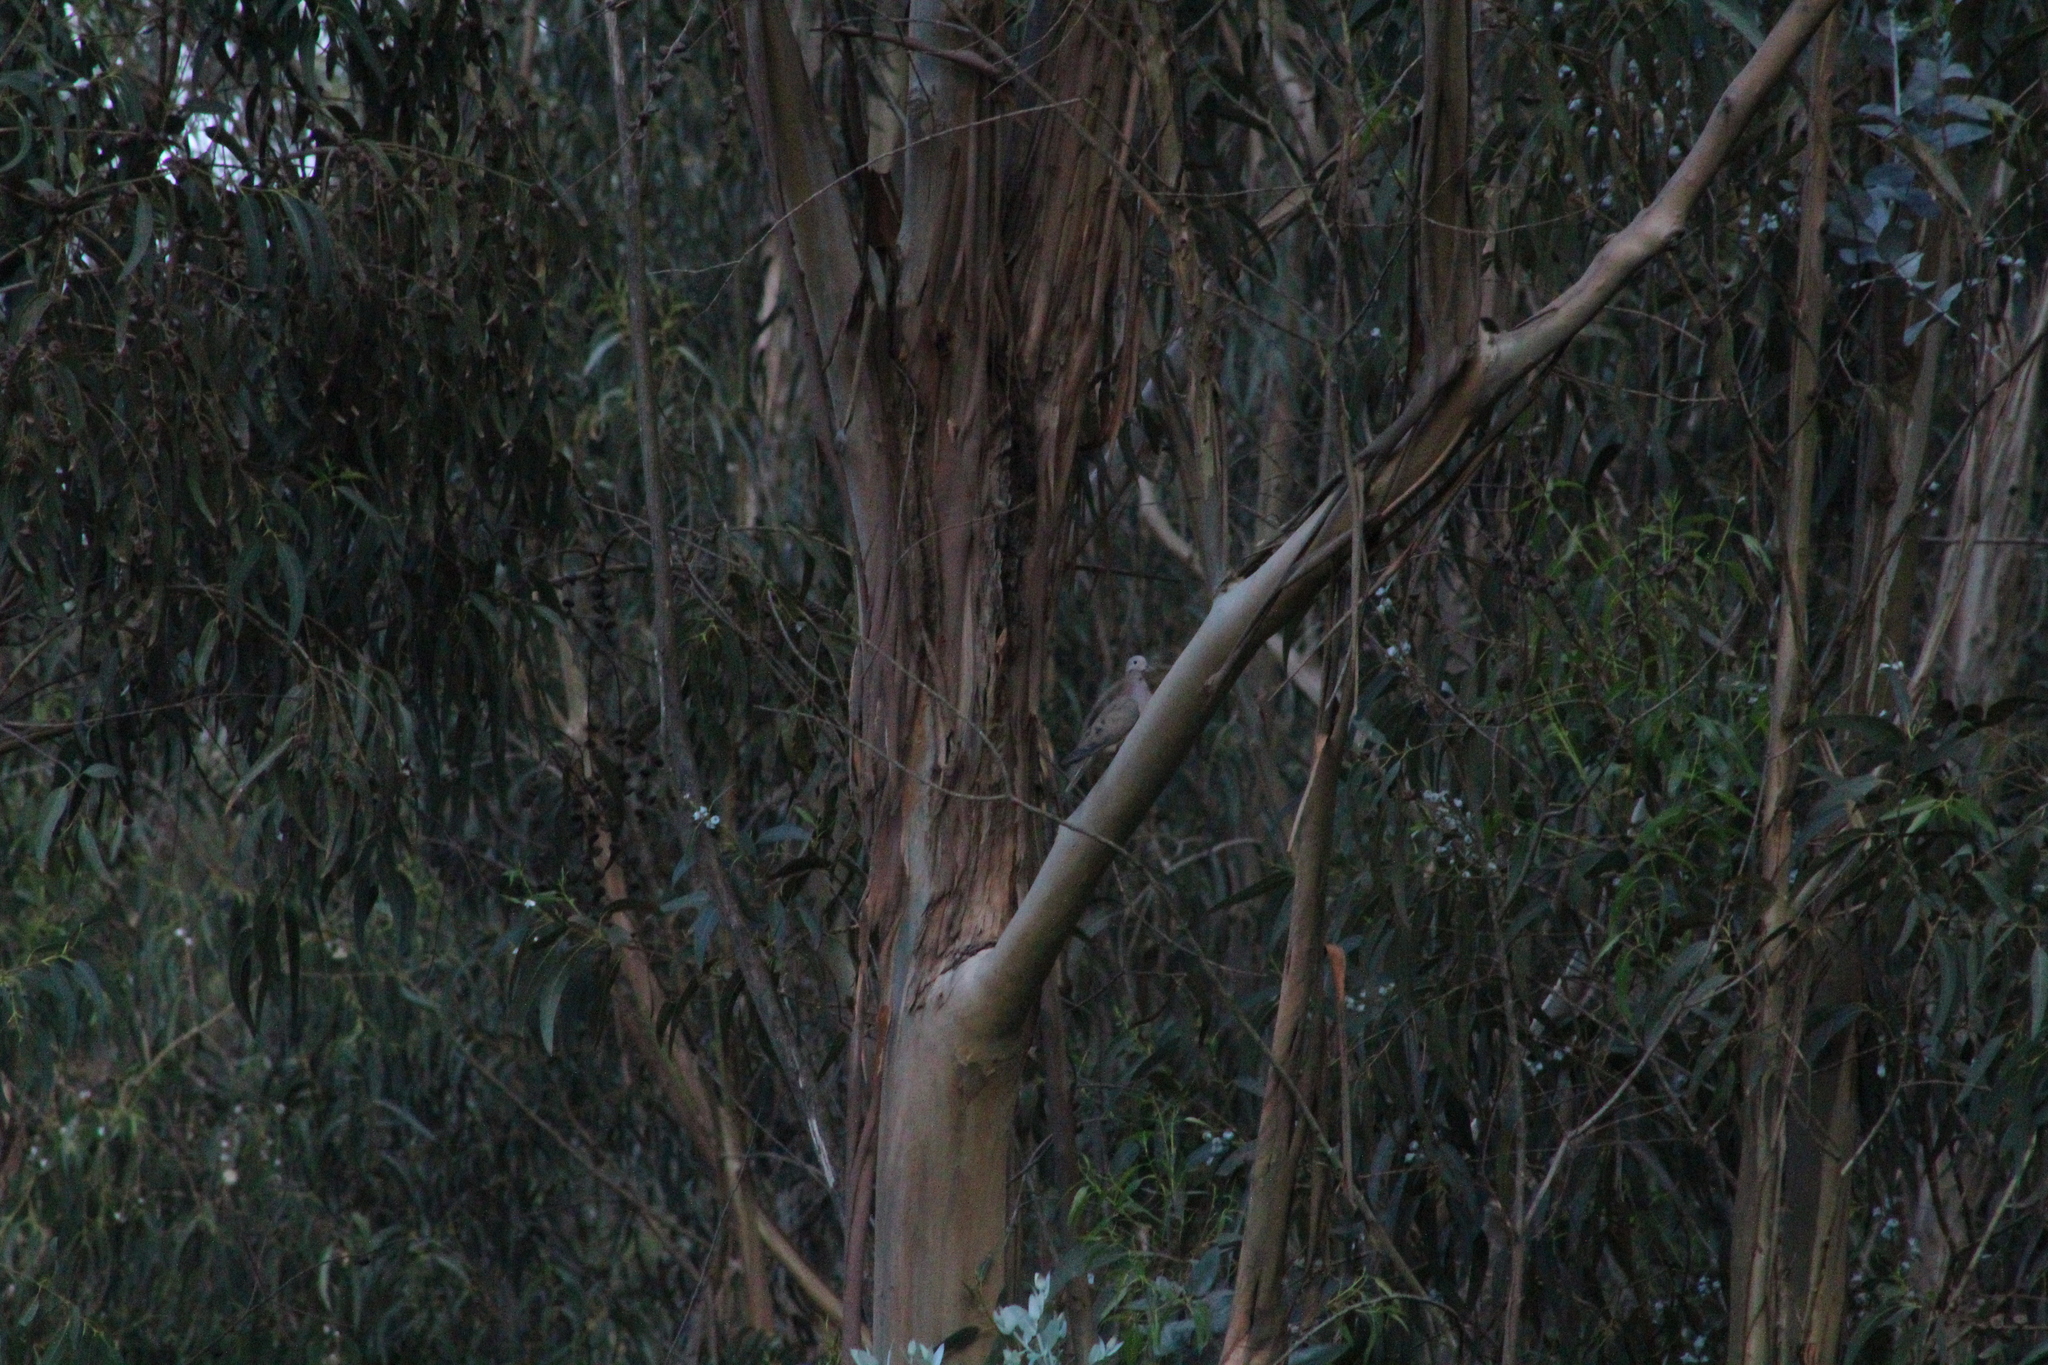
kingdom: Animalia
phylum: Chordata
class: Aves
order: Columbiformes
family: Columbidae
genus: Zenaida
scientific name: Zenaida auriculata
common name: Eared dove
